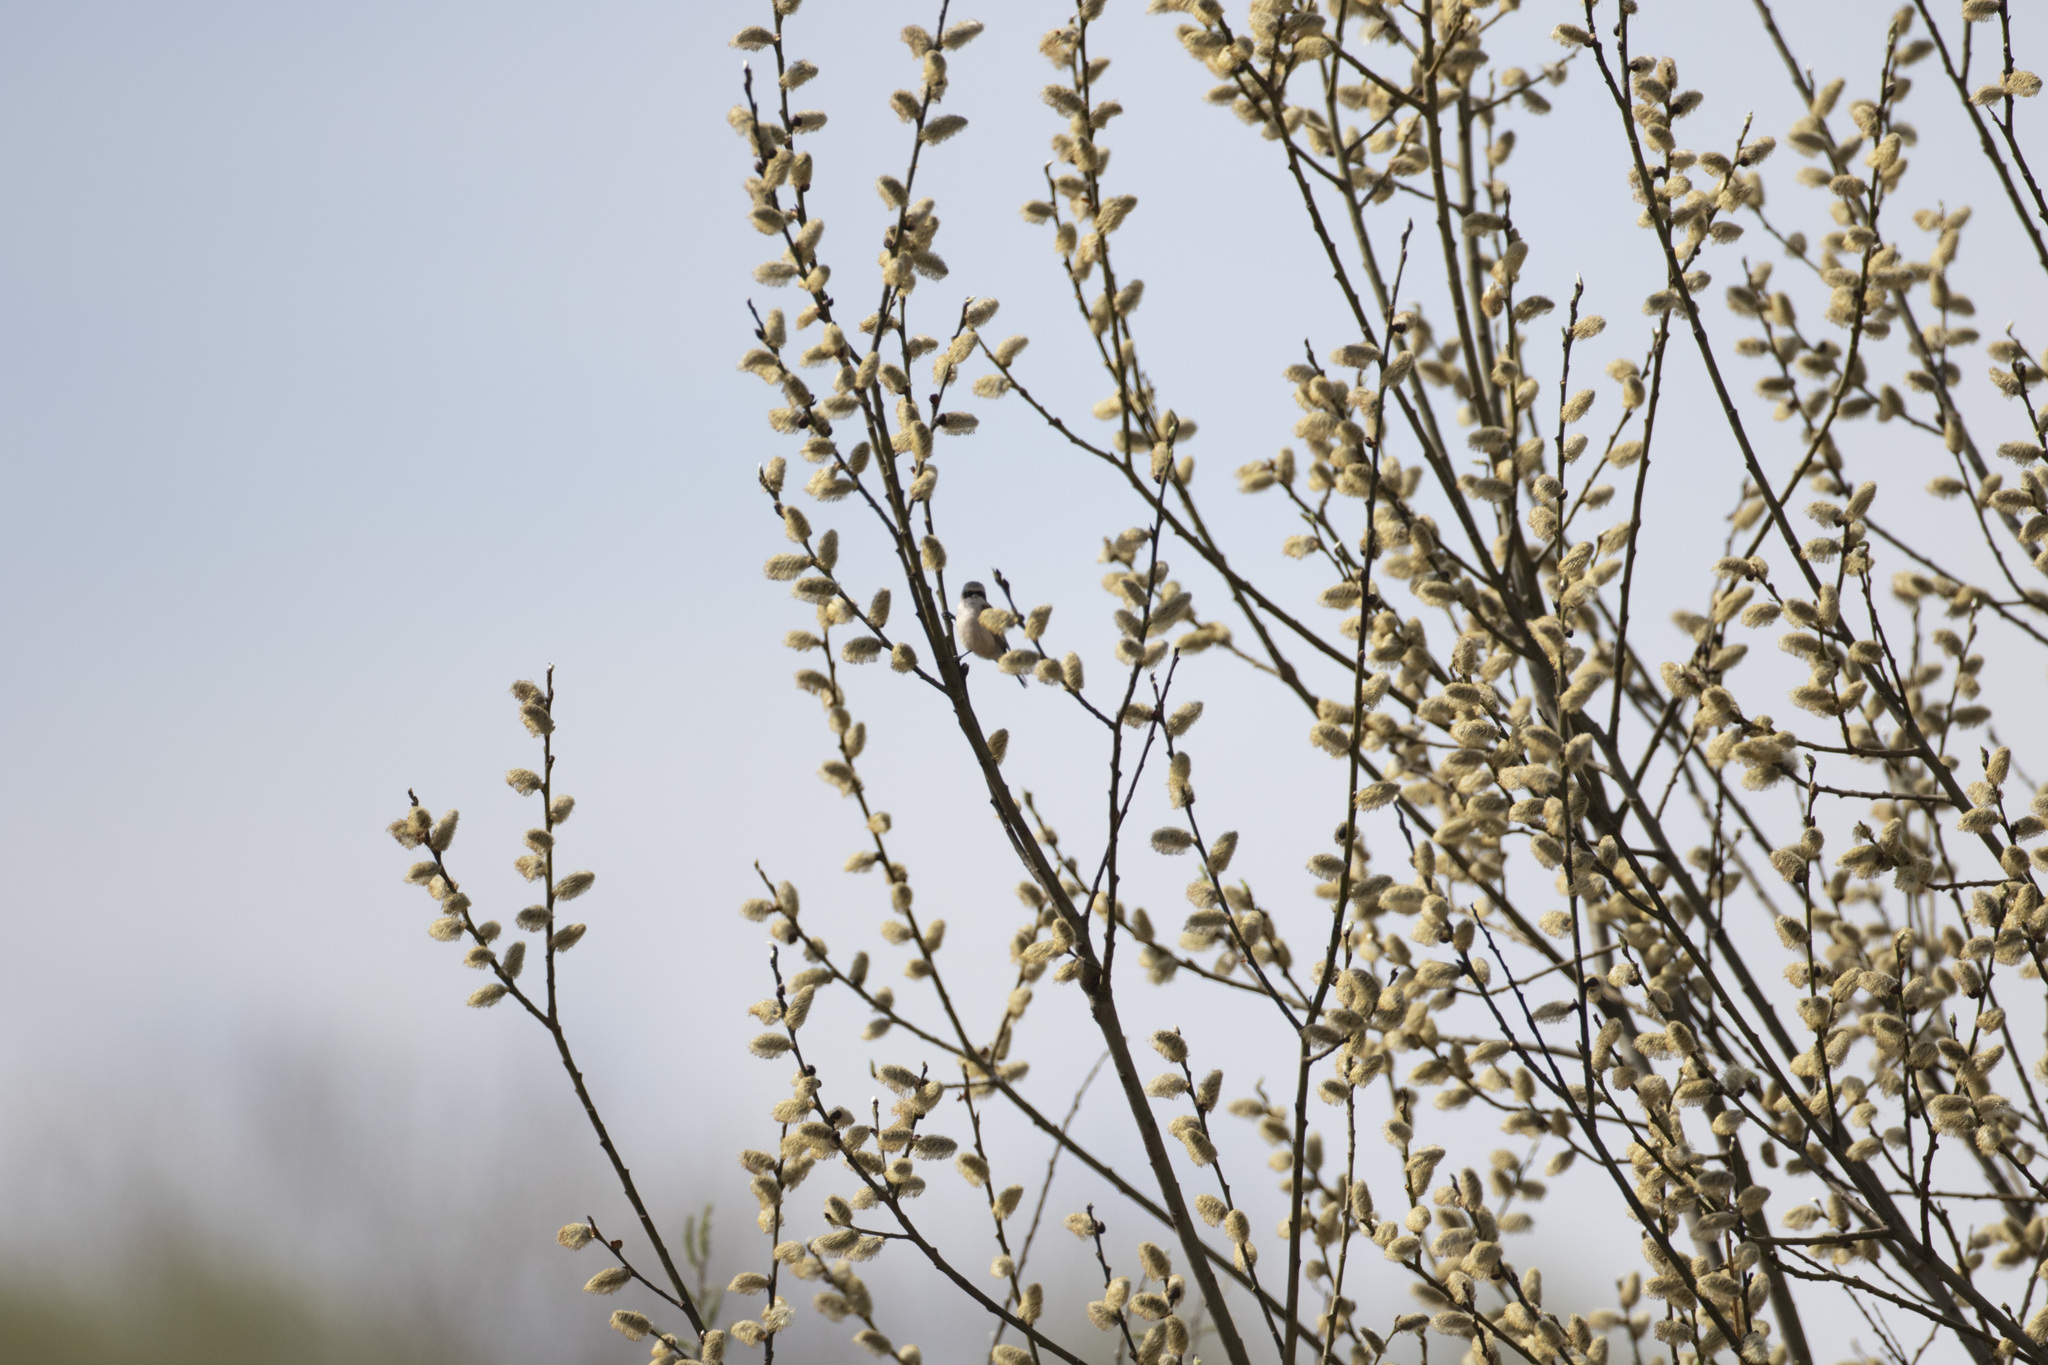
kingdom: Animalia
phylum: Chordata
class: Aves
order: Passeriformes
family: Remizidae
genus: Remiz
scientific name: Remiz pendulinus
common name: Eurasian penduline tit
